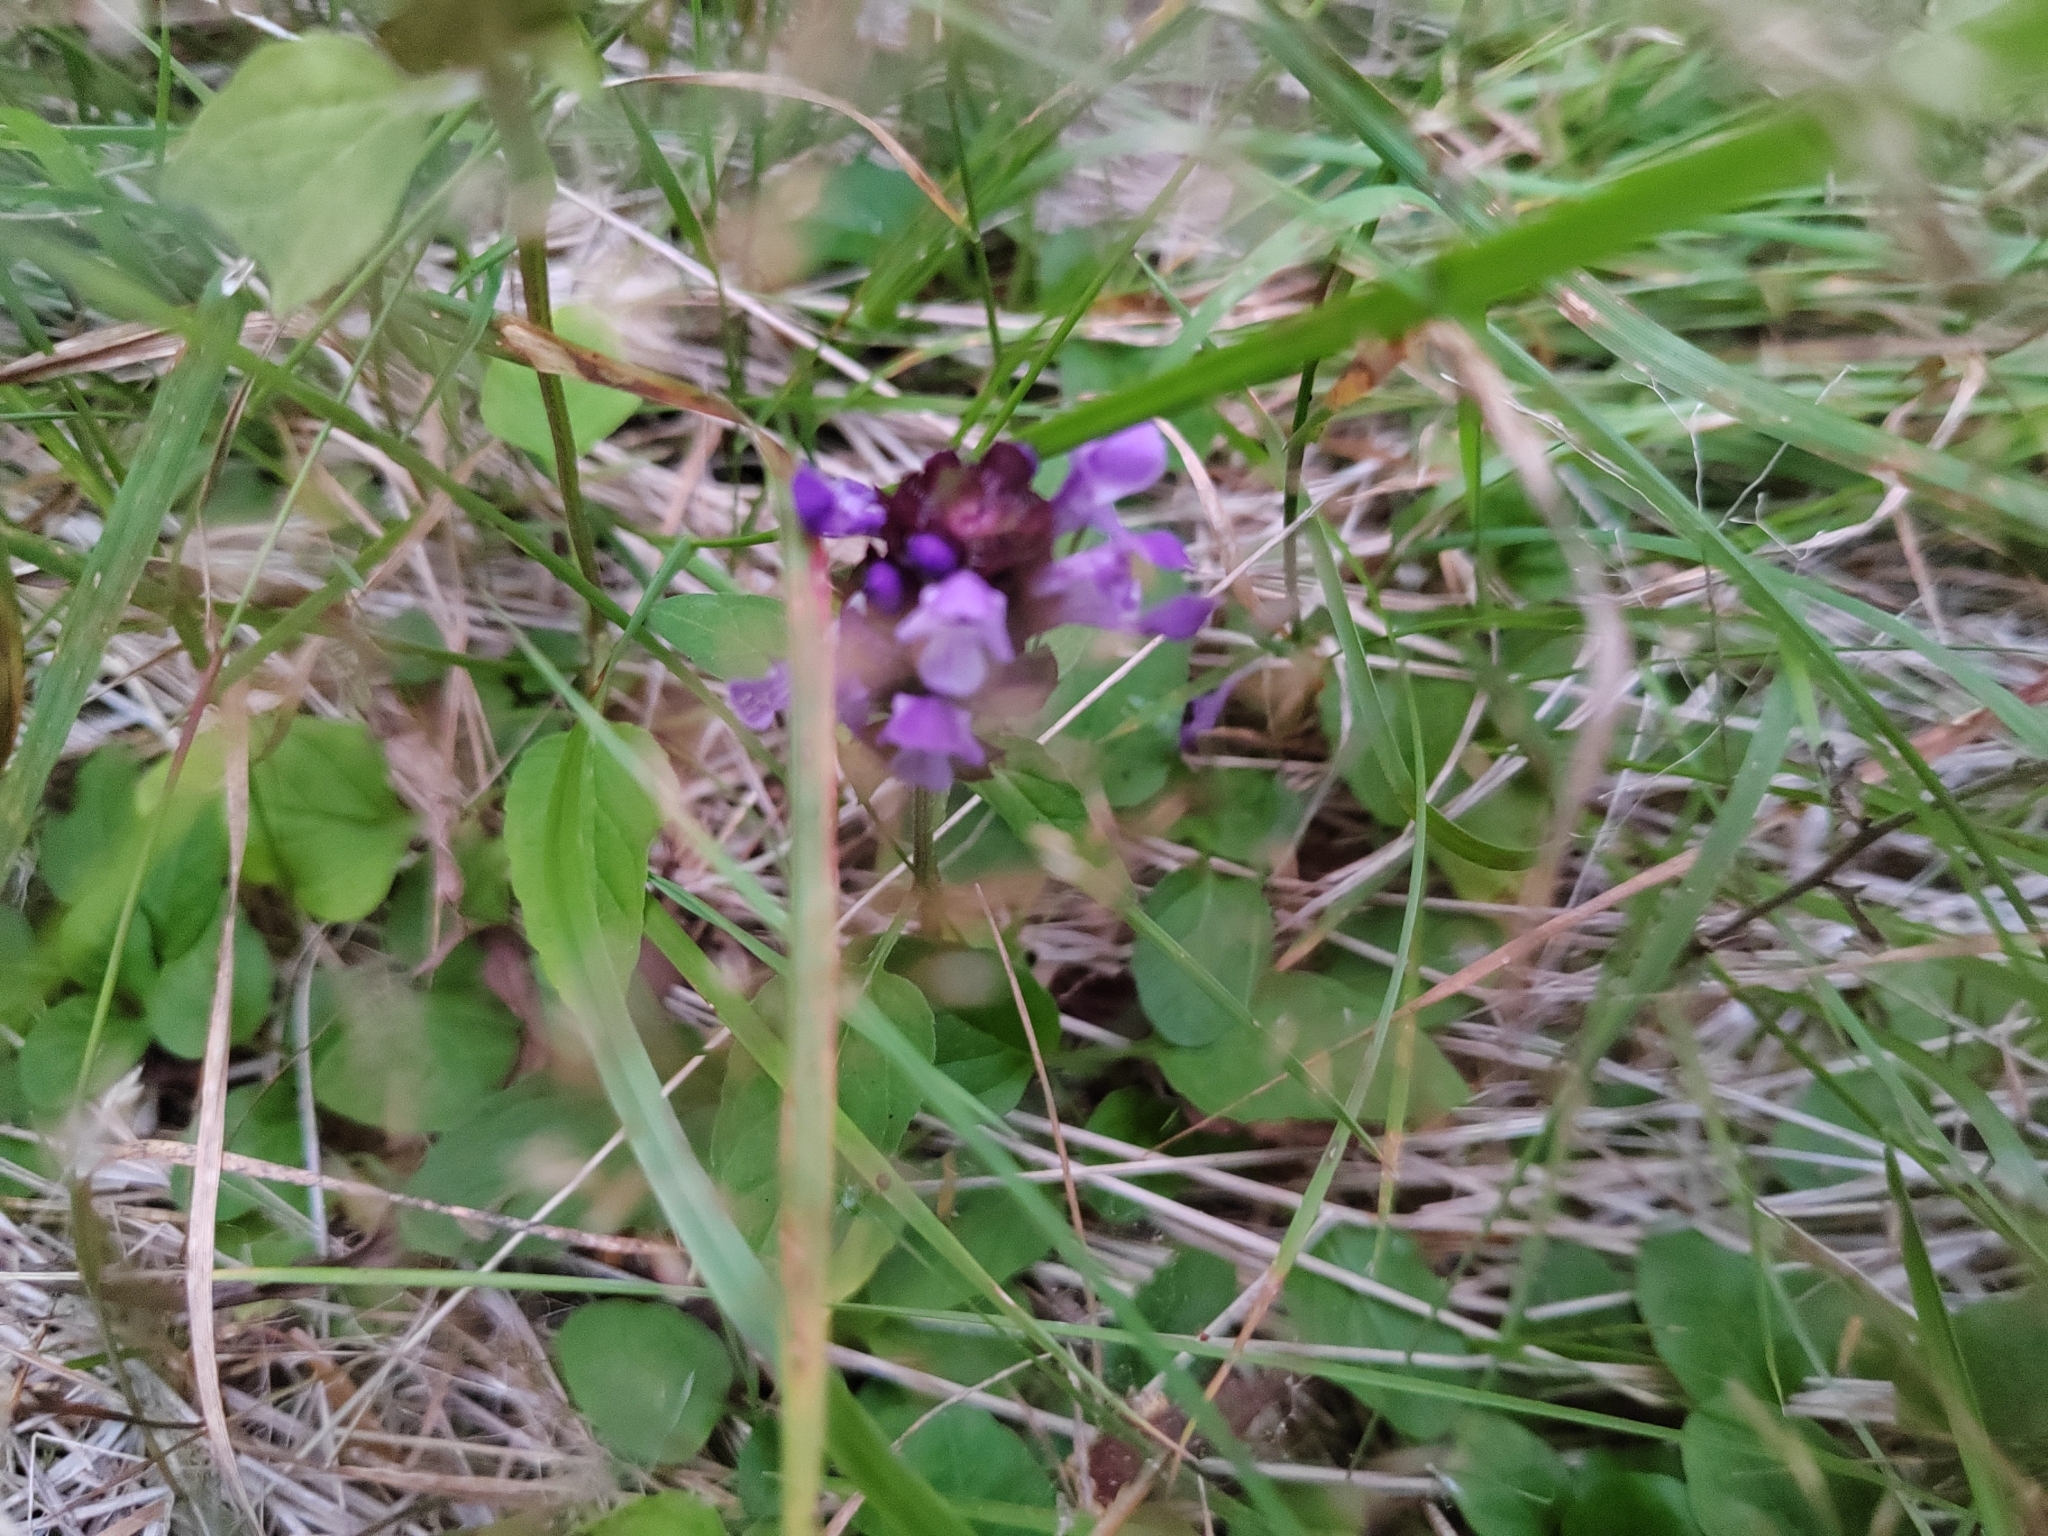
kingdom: Plantae
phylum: Tracheophyta
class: Magnoliopsida
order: Lamiales
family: Lamiaceae
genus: Prunella
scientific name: Prunella vulgaris
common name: Heal-all
